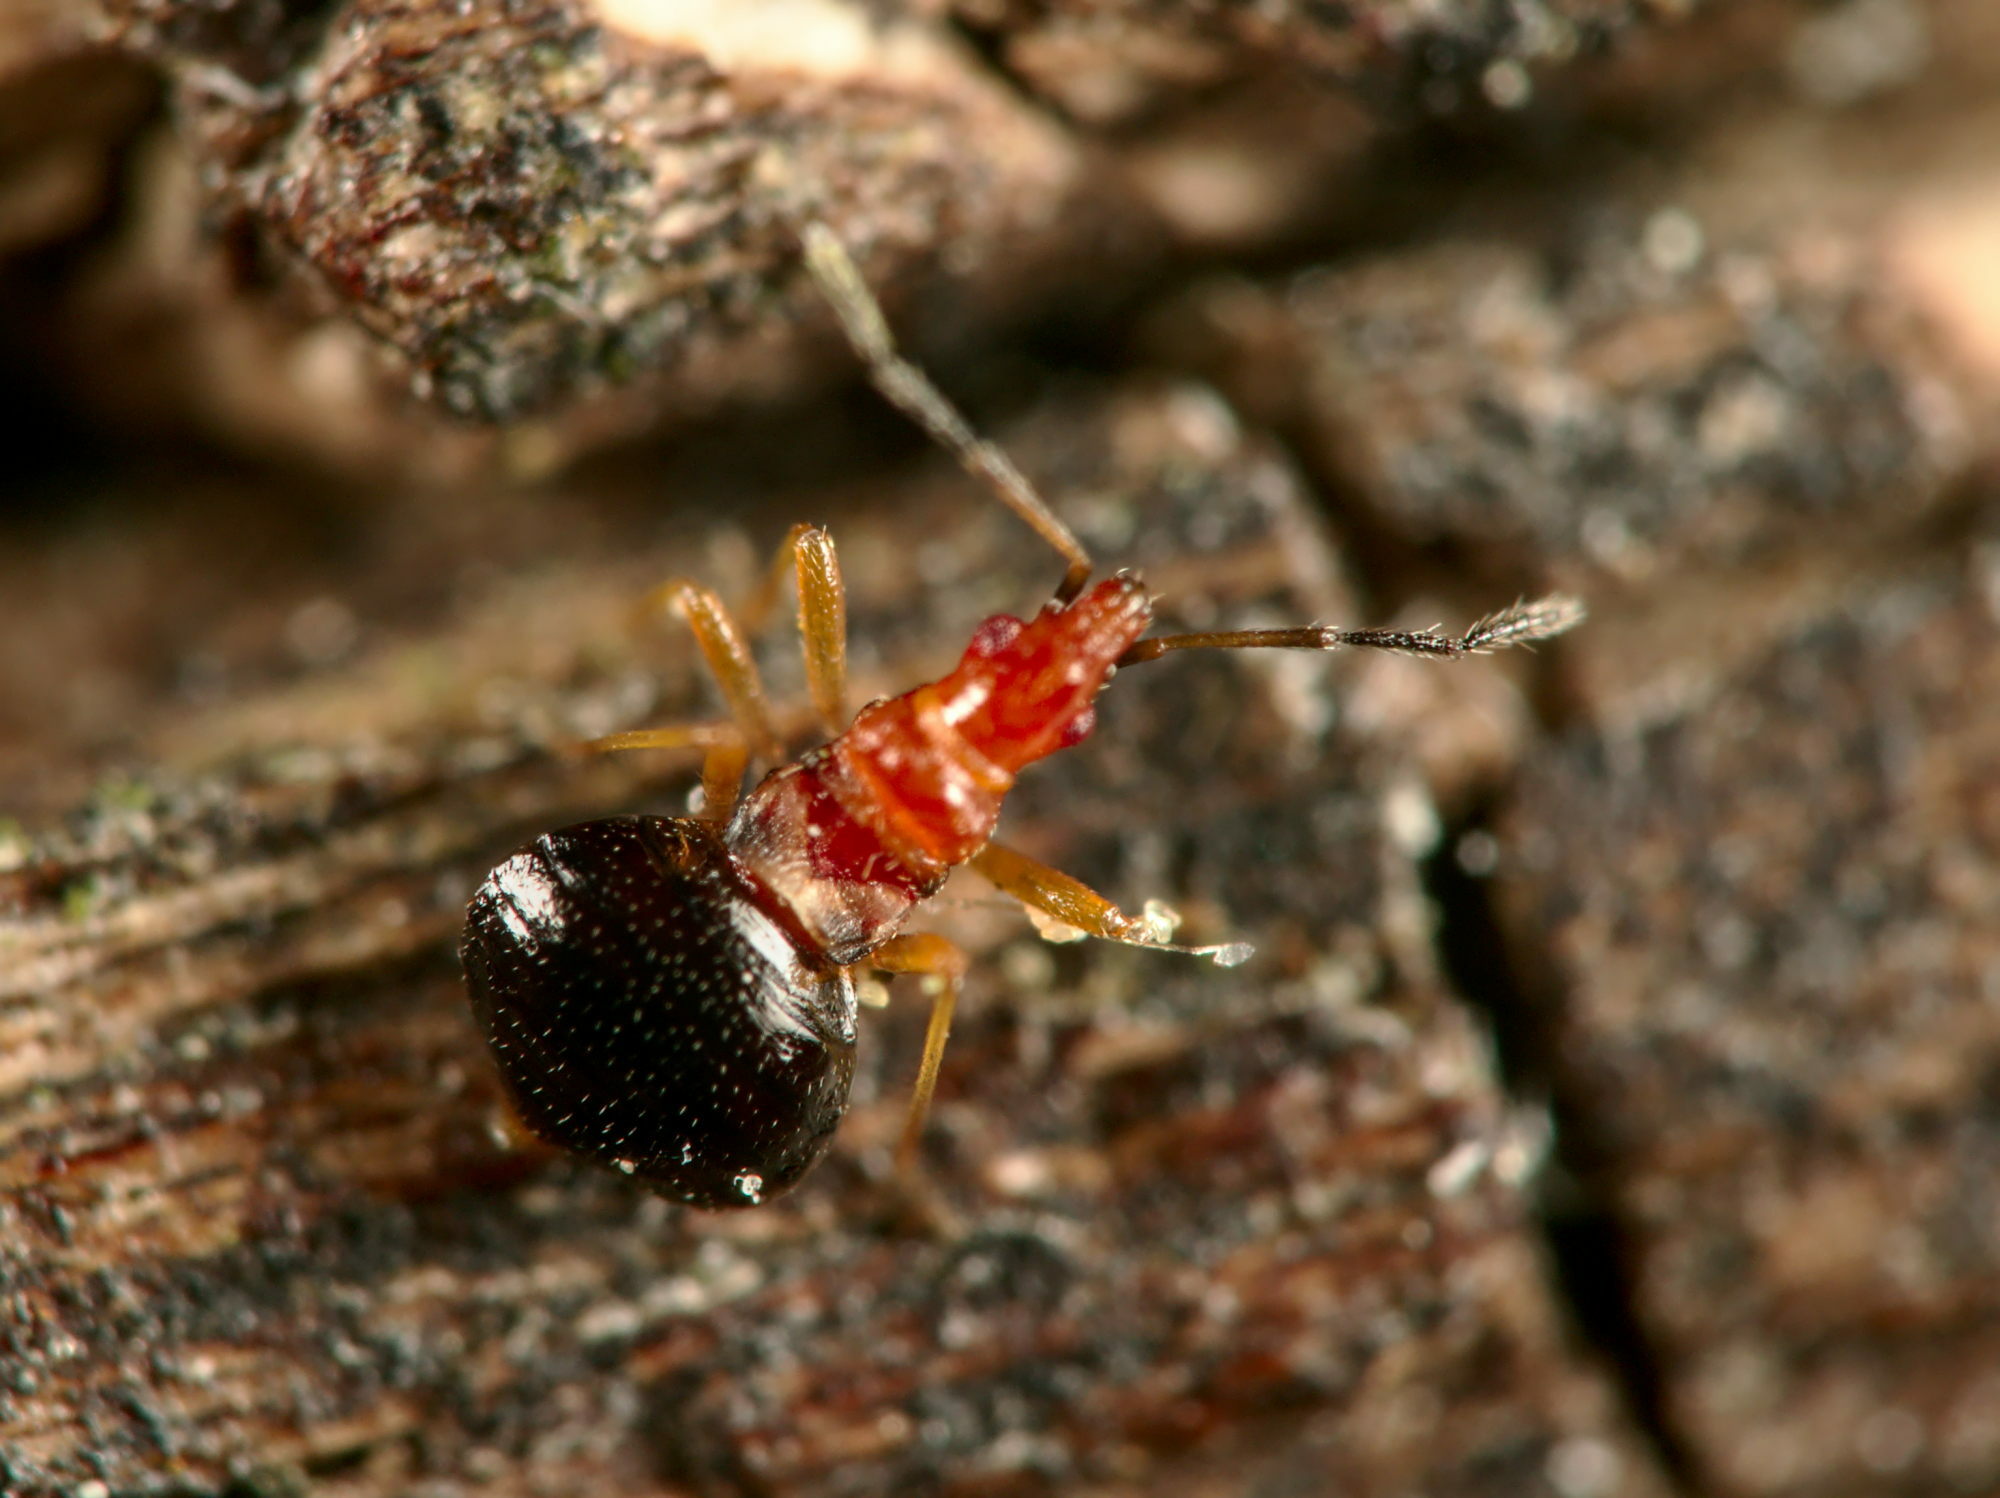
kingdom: Animalia
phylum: Arthropoda
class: Insecta
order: Hemiptera
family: Microphysidae
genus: Loricula
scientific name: Loricula elegantula
